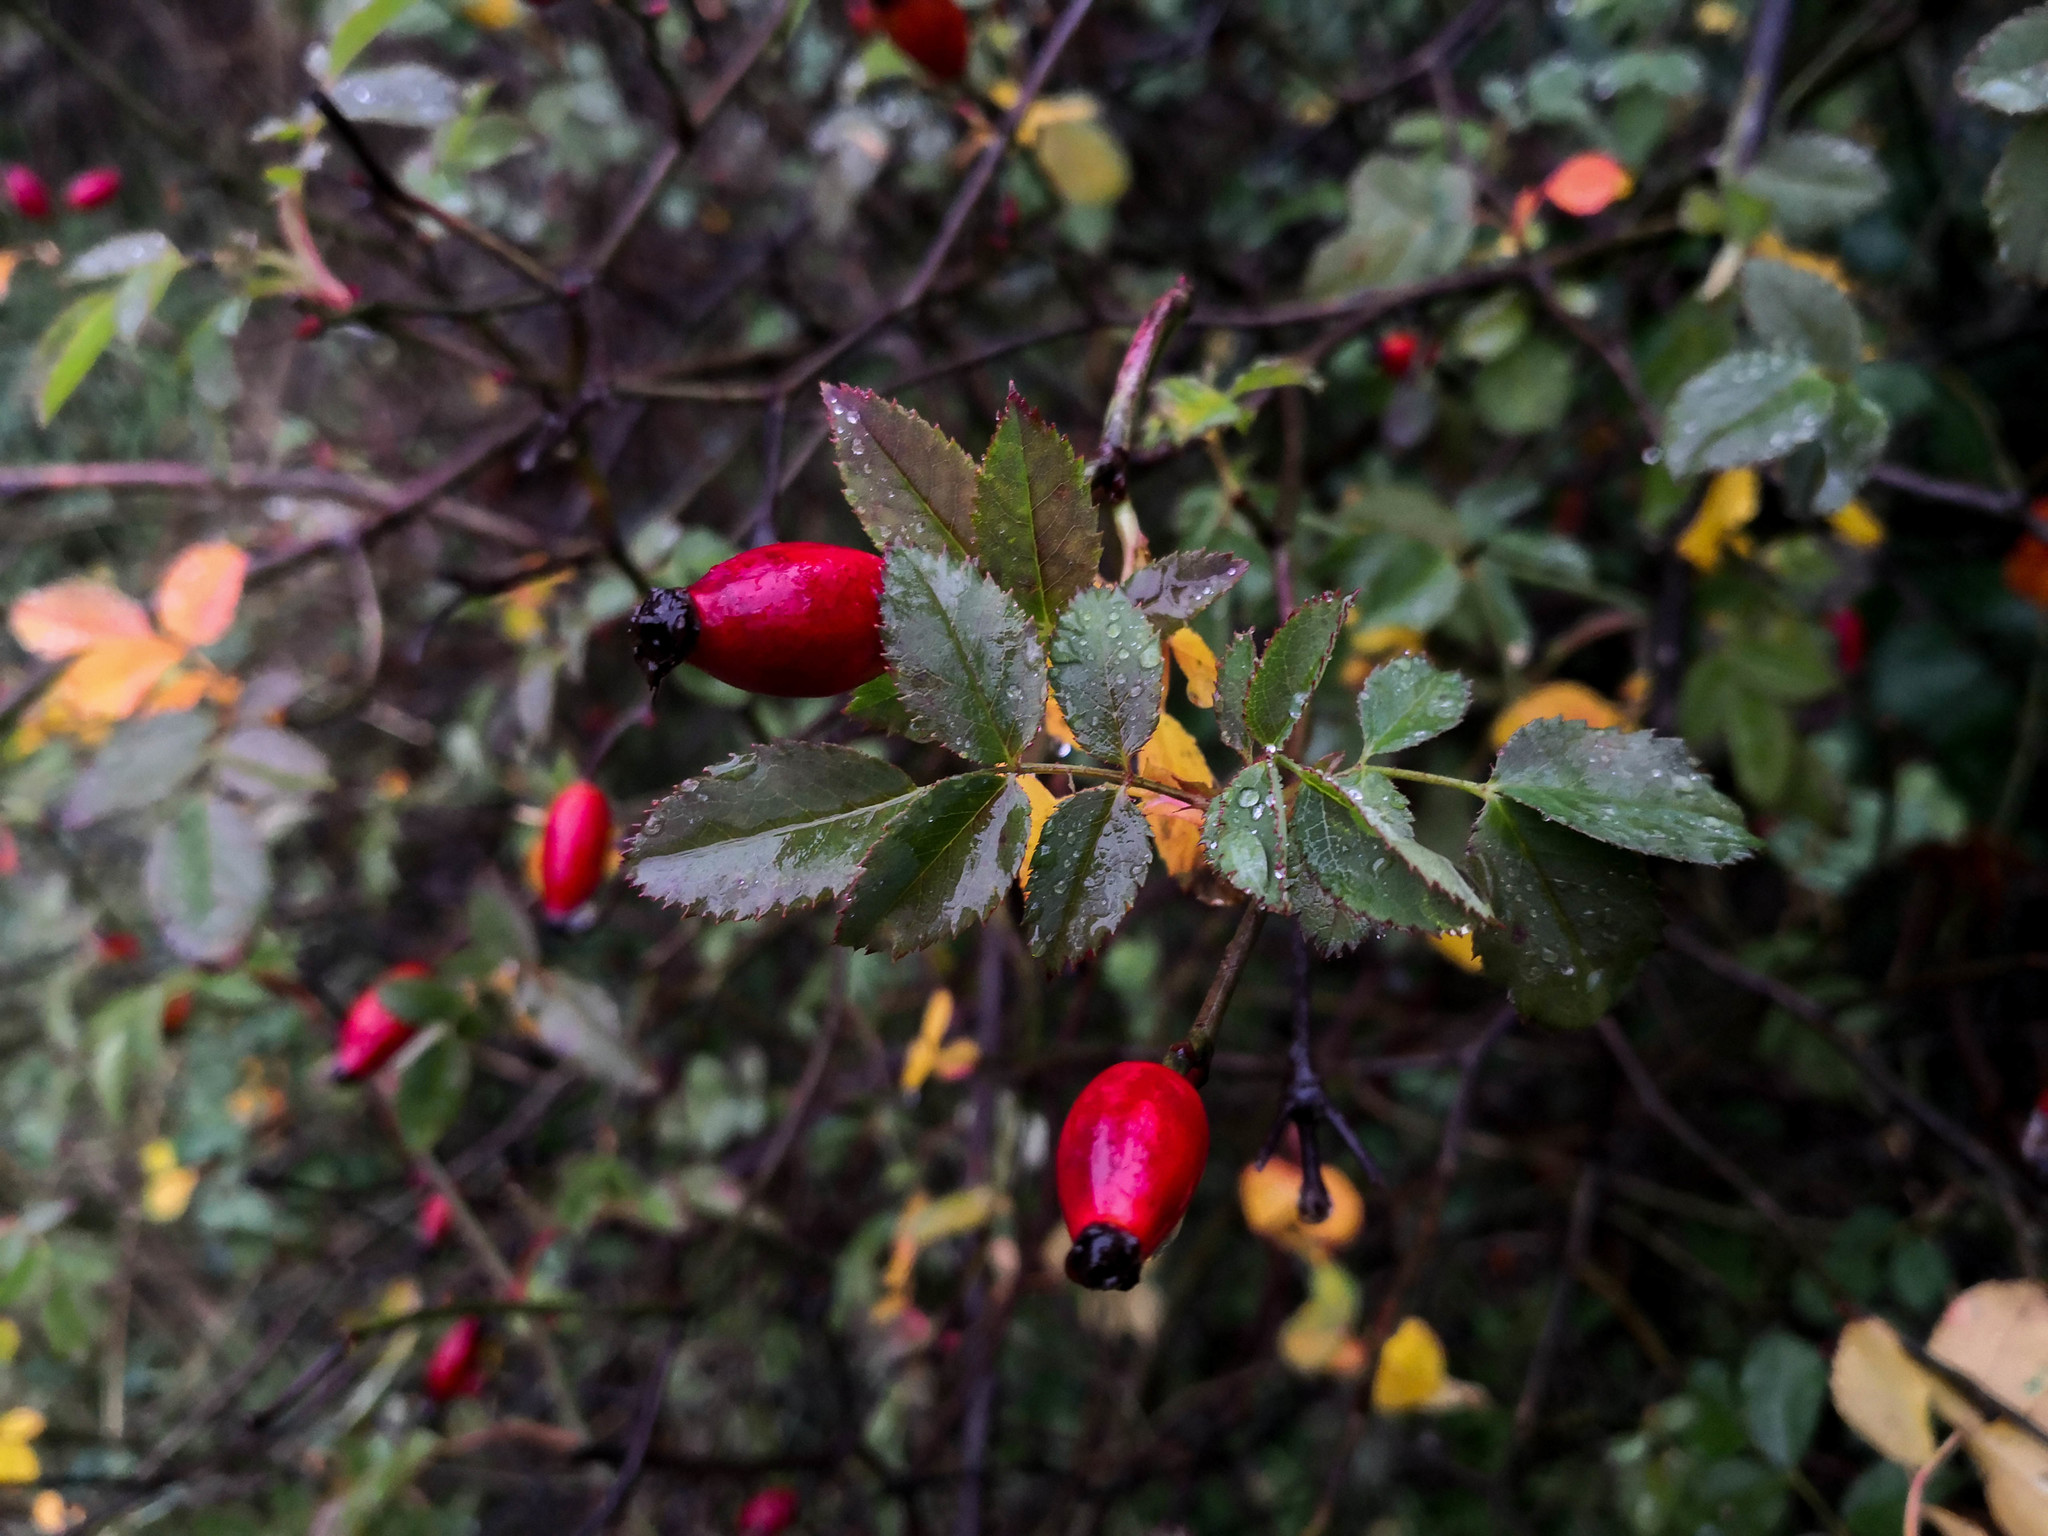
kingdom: Plantae
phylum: Tracheophyta
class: Magnoliopsida
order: Rosales
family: Rosaceae
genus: Rosa
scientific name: Rosa canina
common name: Dog rose
